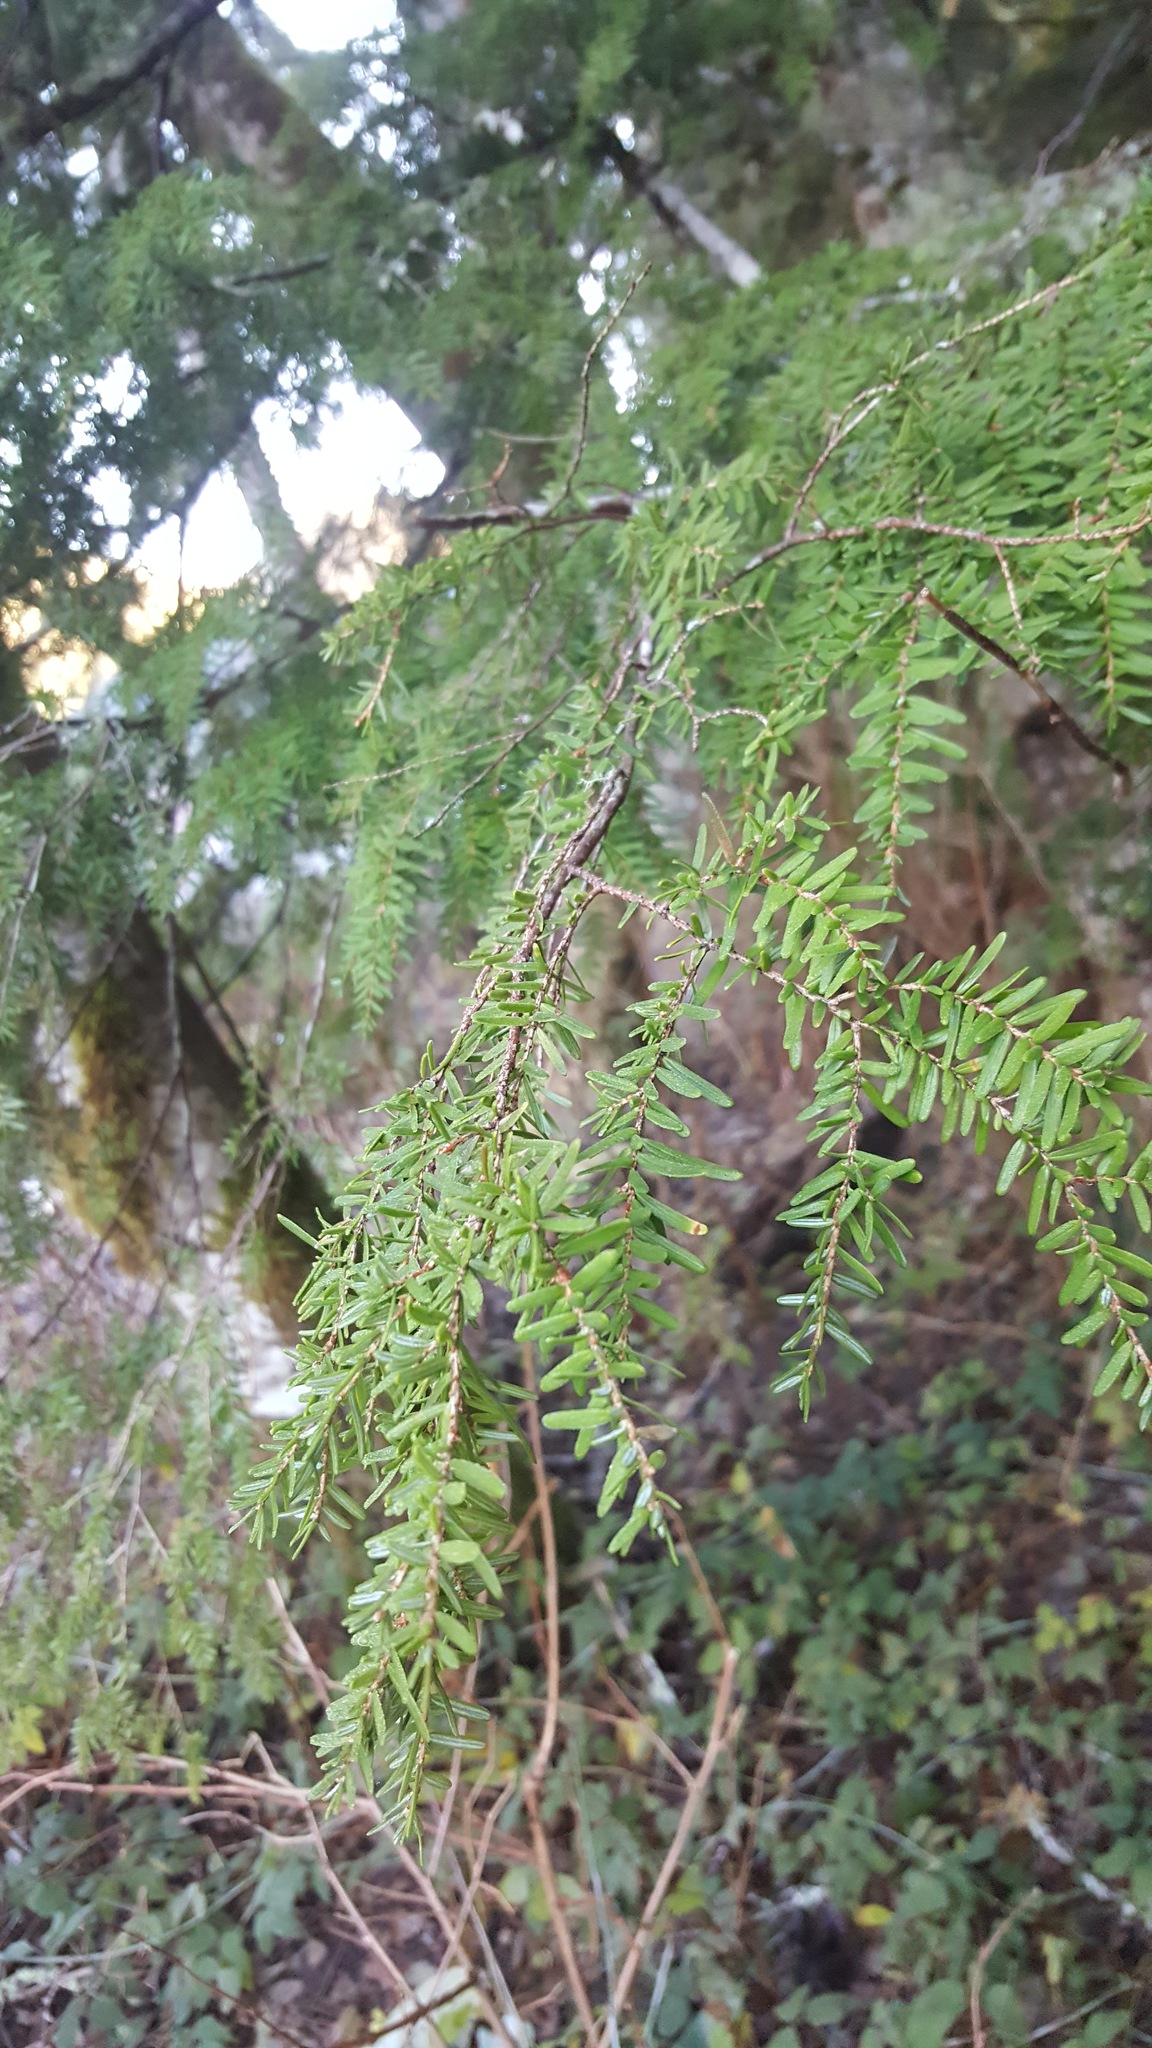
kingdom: Plantae
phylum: Tracheophyta
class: Pinopsida
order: Pinales
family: Pinaceae
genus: Tsuga
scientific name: Tsuga heterophylla
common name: Western hemlock
